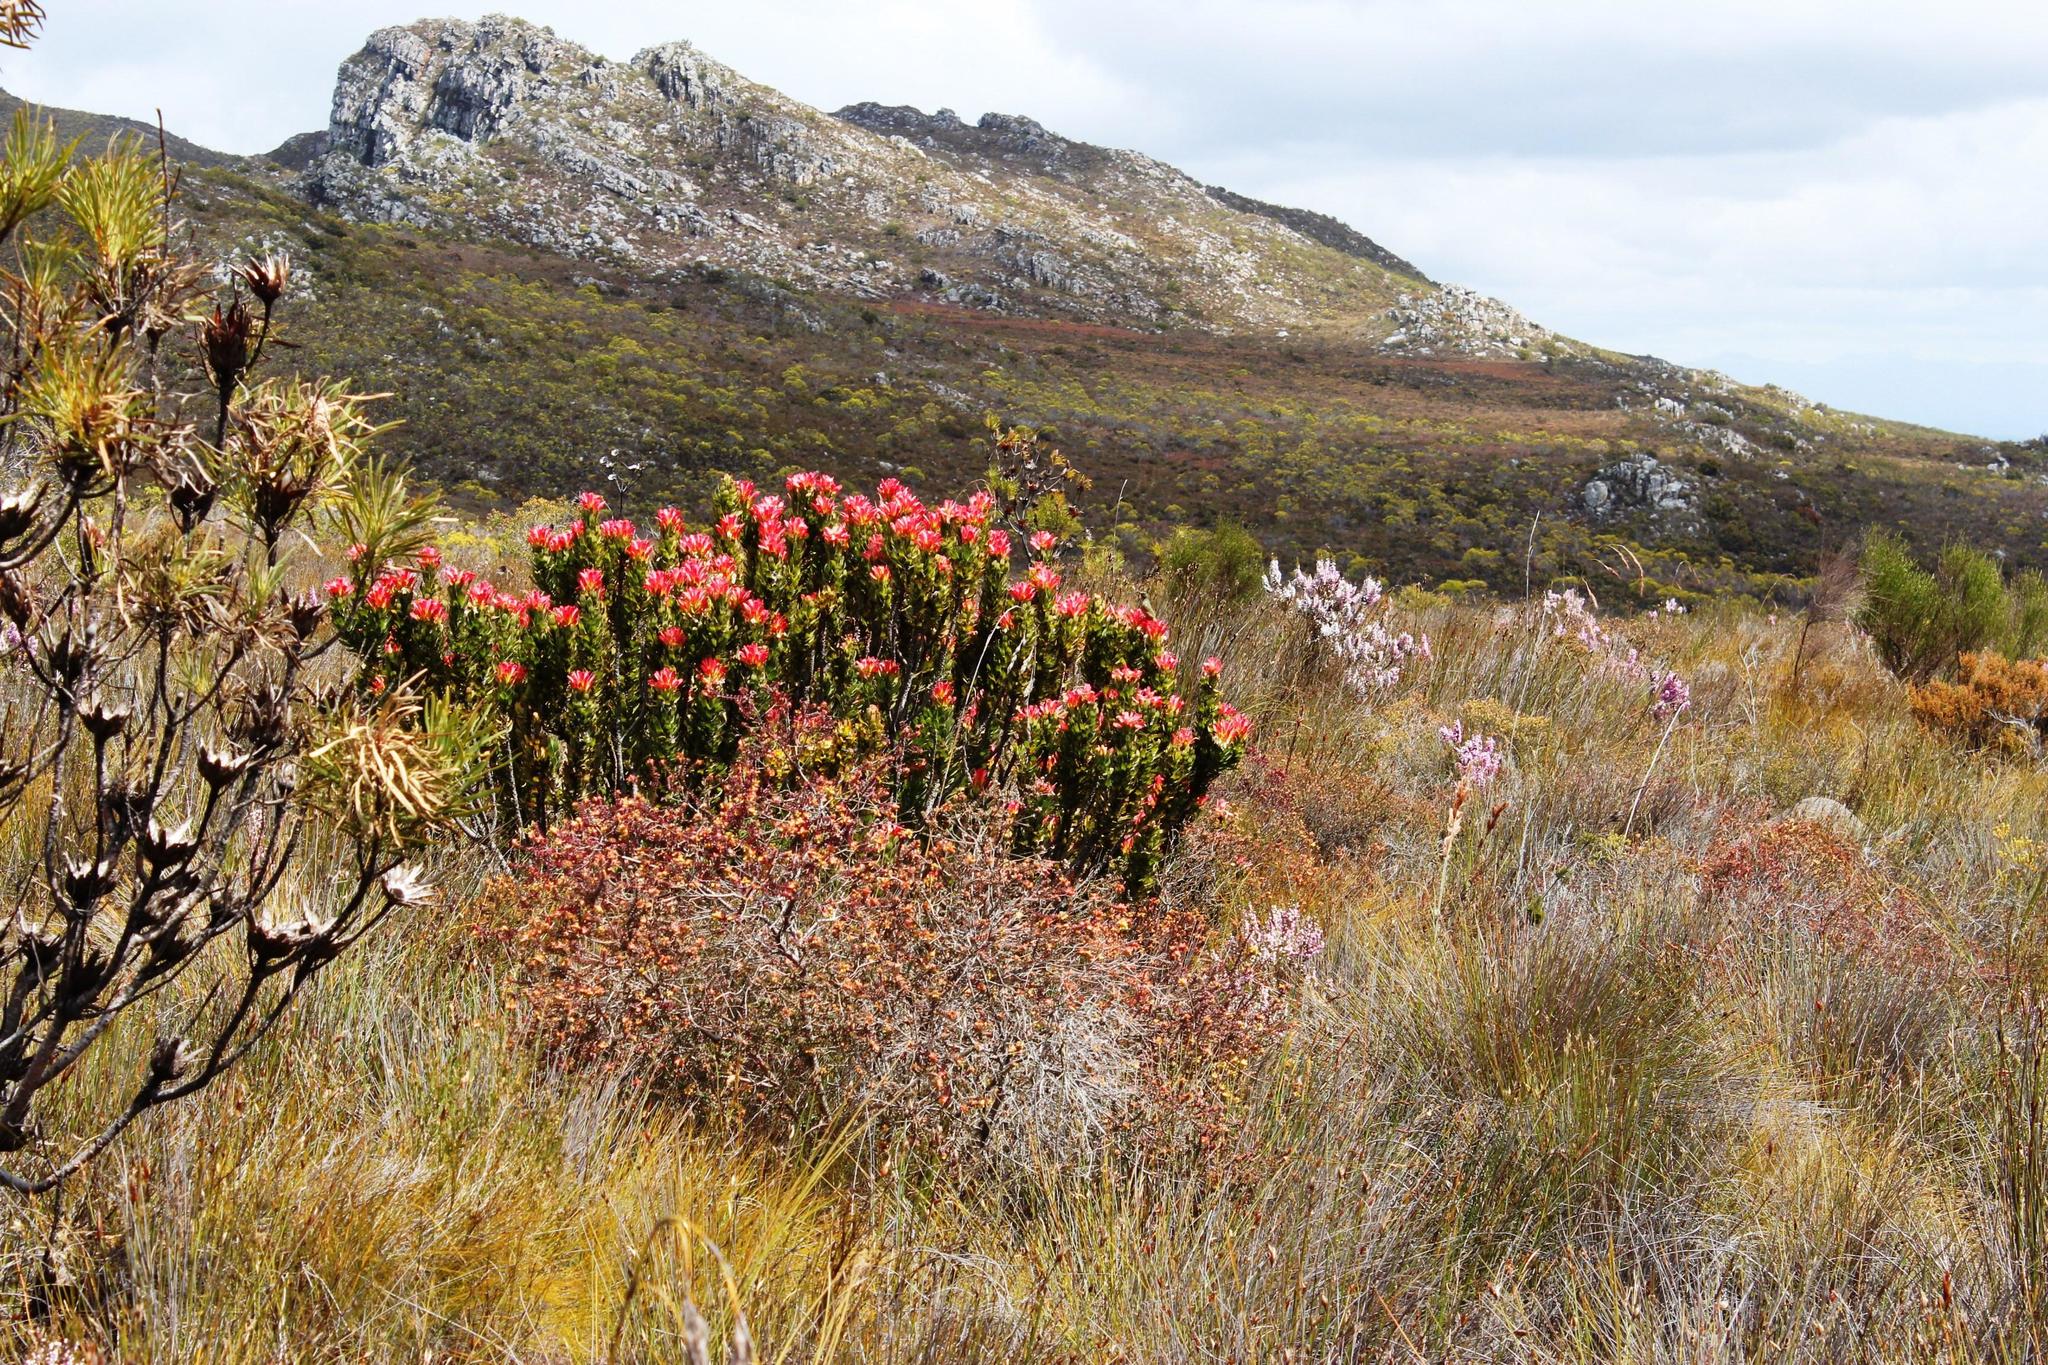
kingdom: Plantae
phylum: Tracheophyta
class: Magnoliopsida
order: Proteales
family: Proteaceae
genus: Mimetes
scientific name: Mimetes cucullatus
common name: Common pagoda
